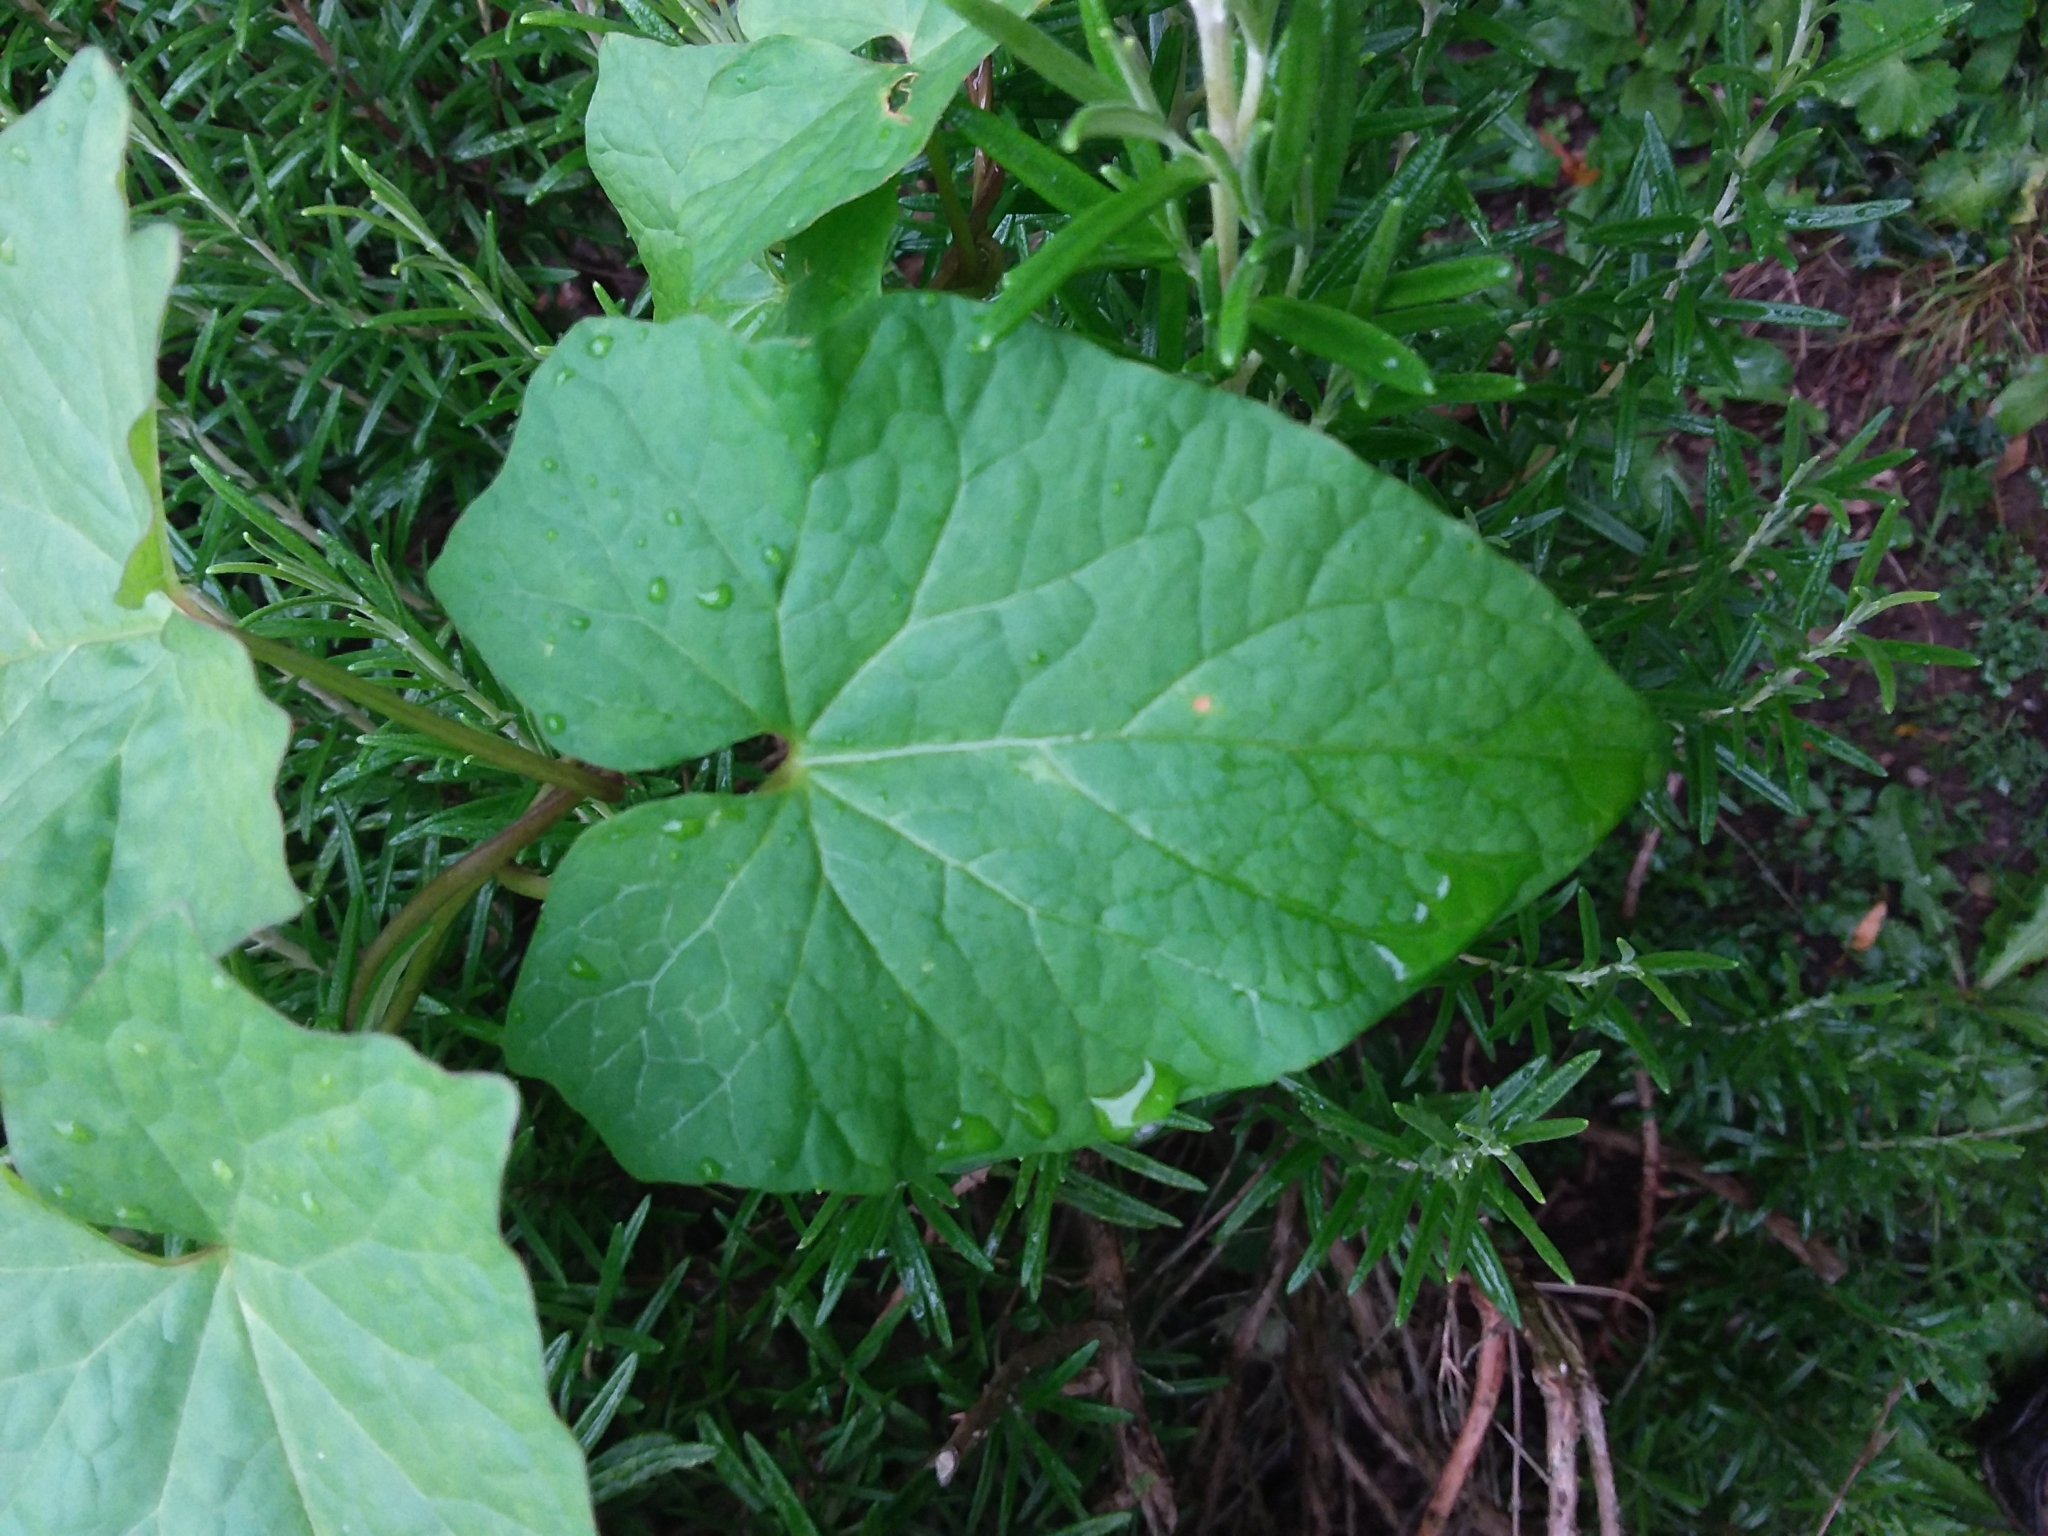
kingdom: Plantae
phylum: Tracheophyta
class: Magnoliopsida
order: Solanales
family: Convolvulaceae
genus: Calystegia
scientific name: Calystegia silvatica
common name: Large bindweed
